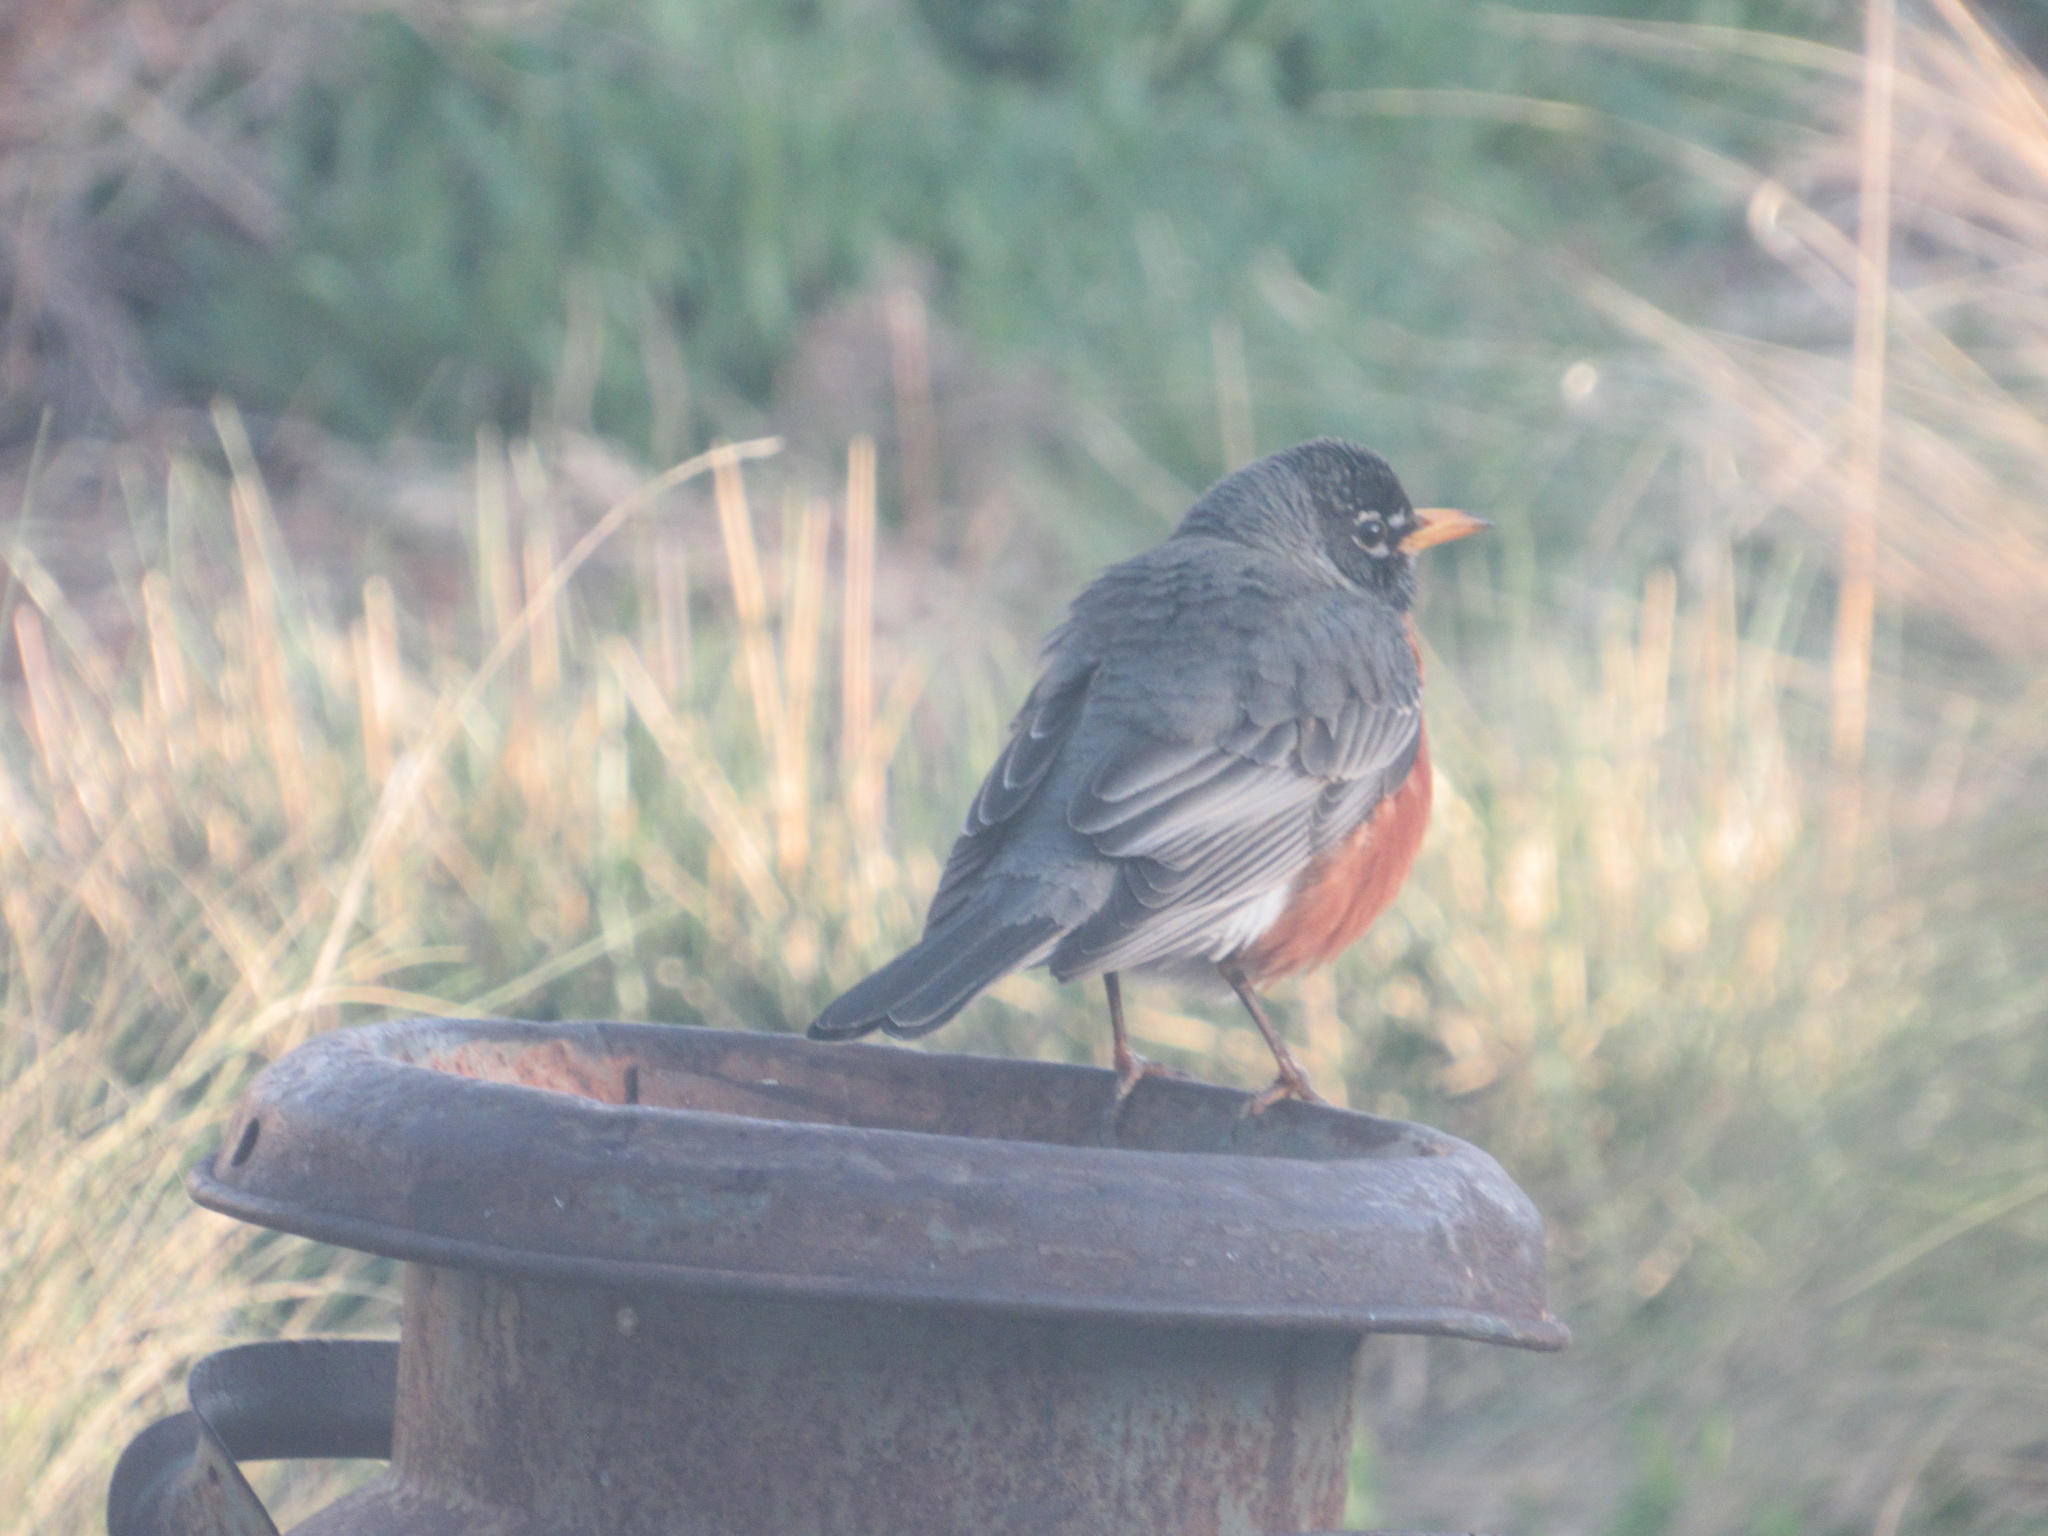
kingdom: Animalia
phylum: Chordata
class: Aves
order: Passeriformes
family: Turdidae
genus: Turdus
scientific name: Turdus migratorius
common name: American robin
